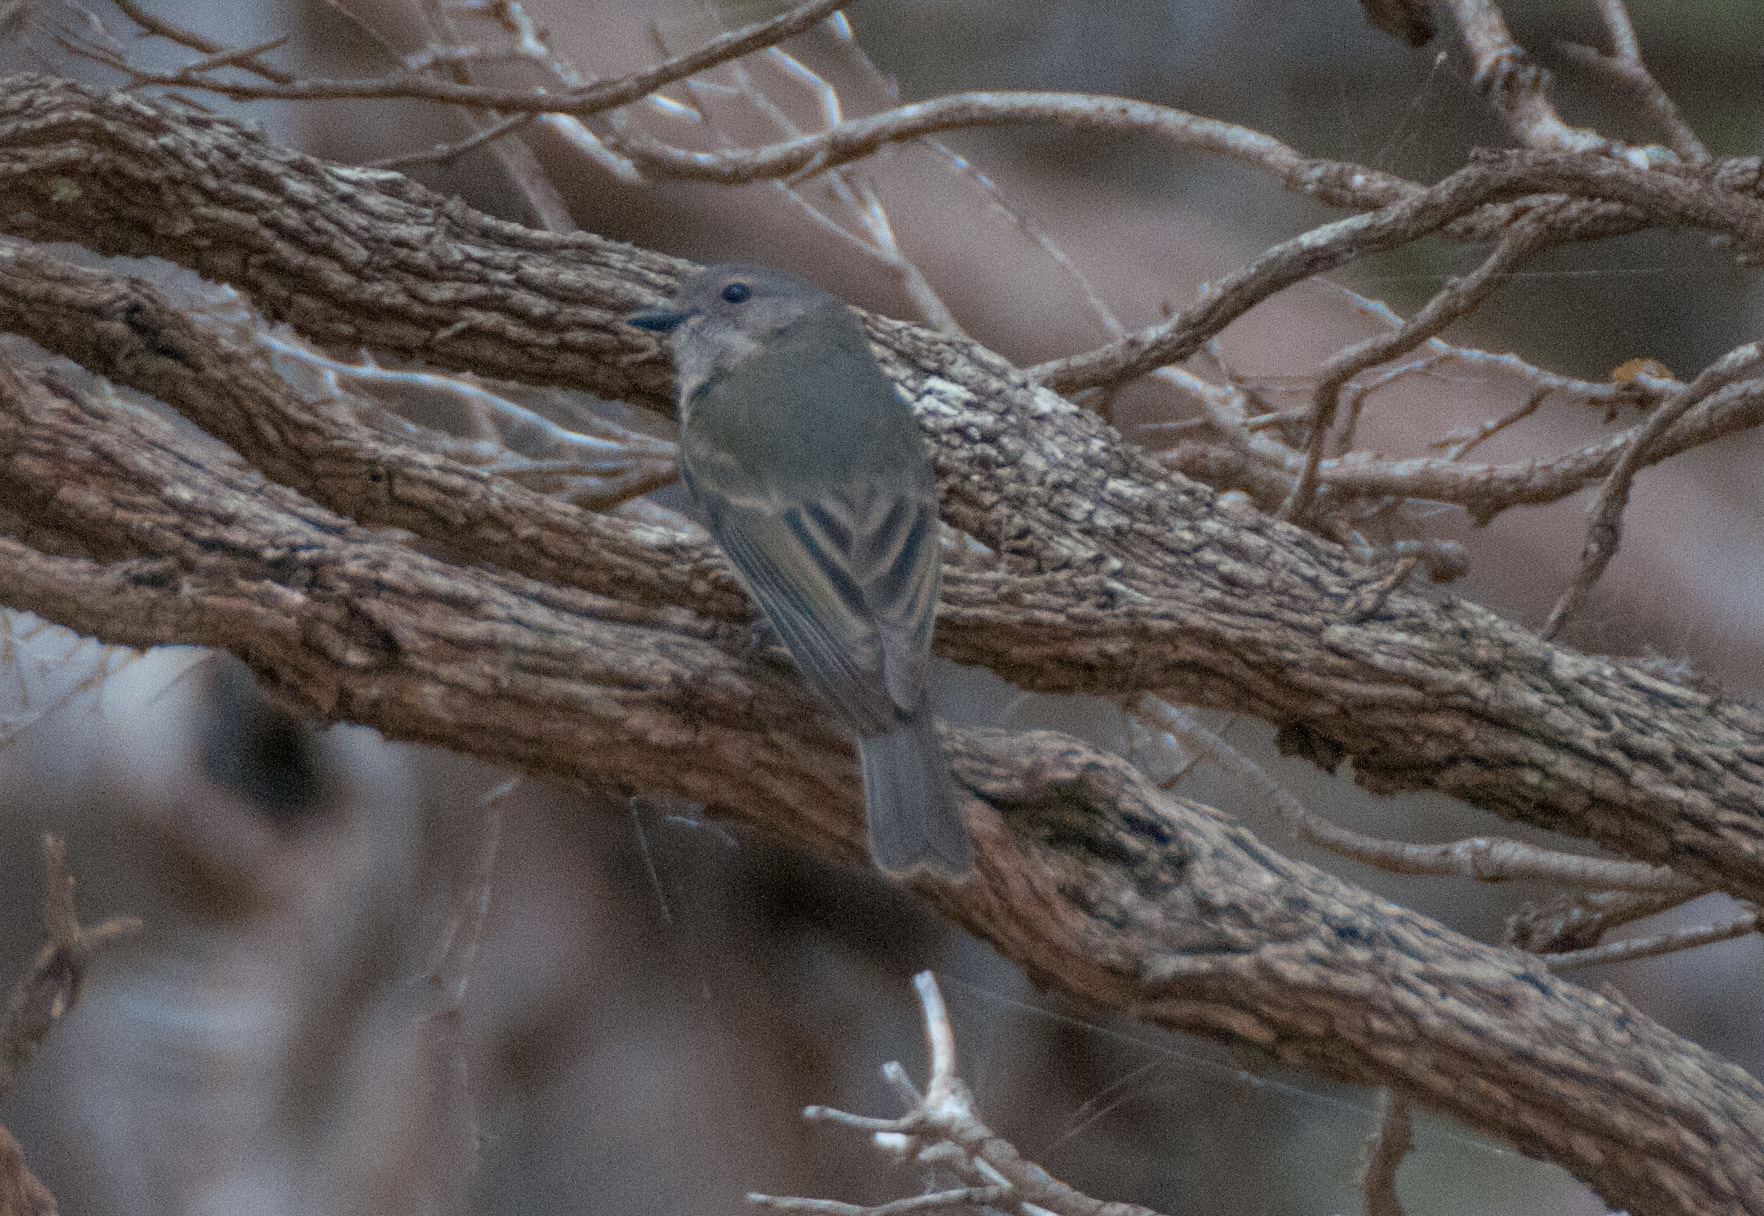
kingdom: Animalia
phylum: Chordata
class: Aves
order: Passeriformes
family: Pachycephalidae
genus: Pachycephala
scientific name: Pachycephala fuliginosa
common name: Western whistler
